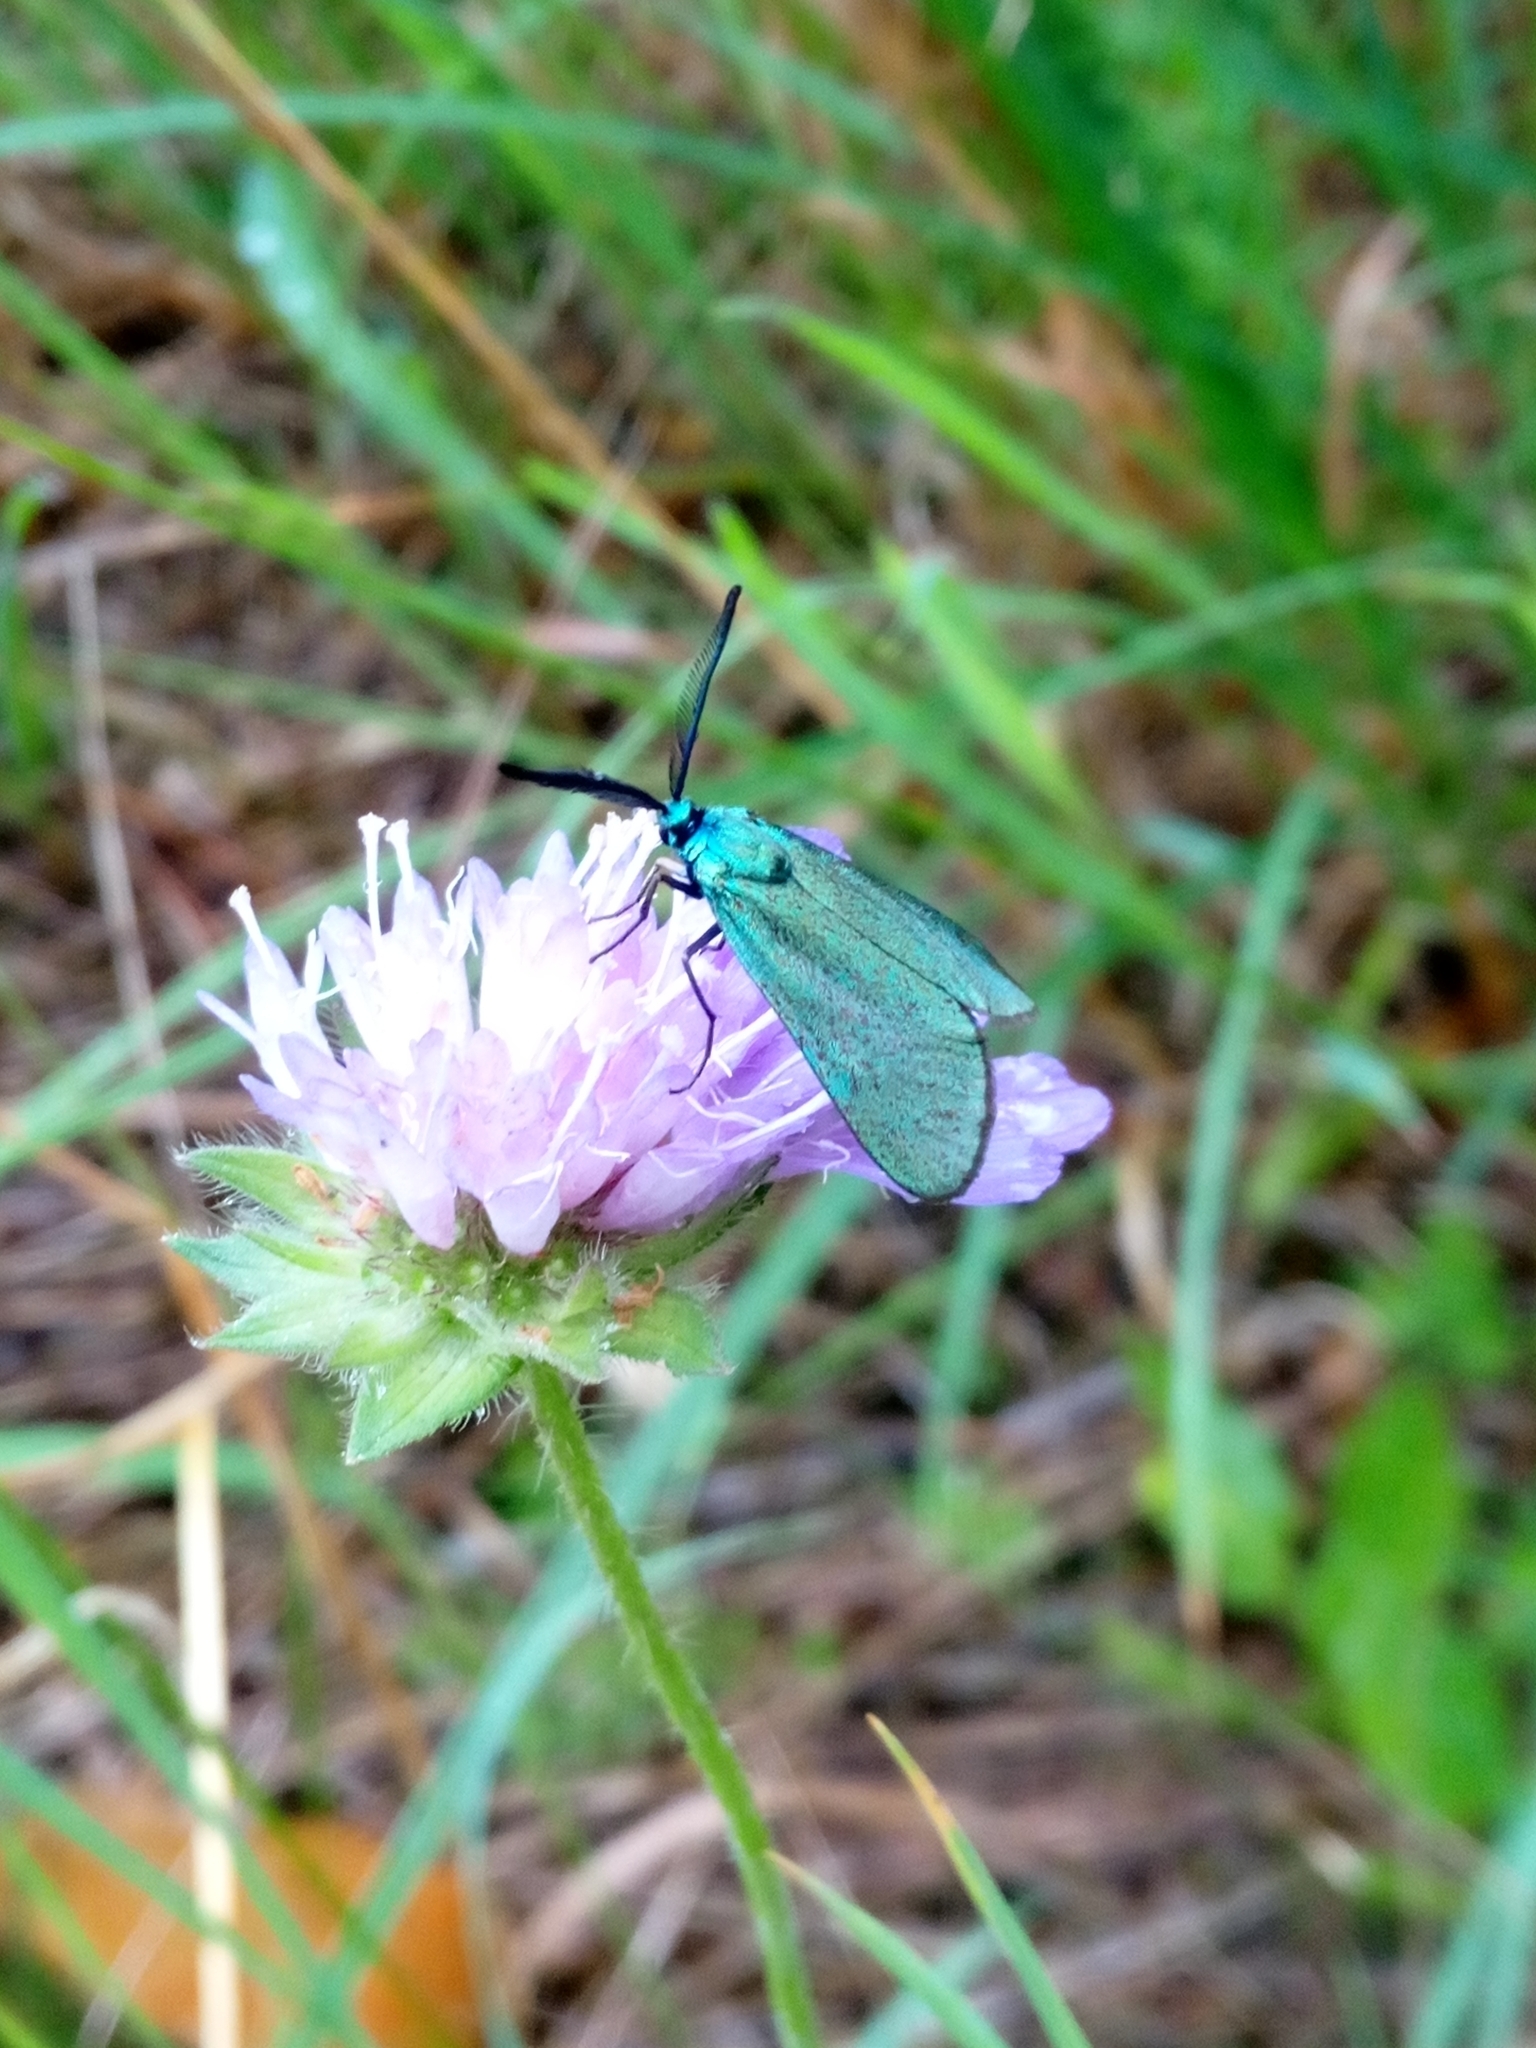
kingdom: Animalia
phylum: Arthropoda
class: Insecta
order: Lepidoptera
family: Zygaenidae
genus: Adscita
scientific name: Adscita statices
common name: Forester
